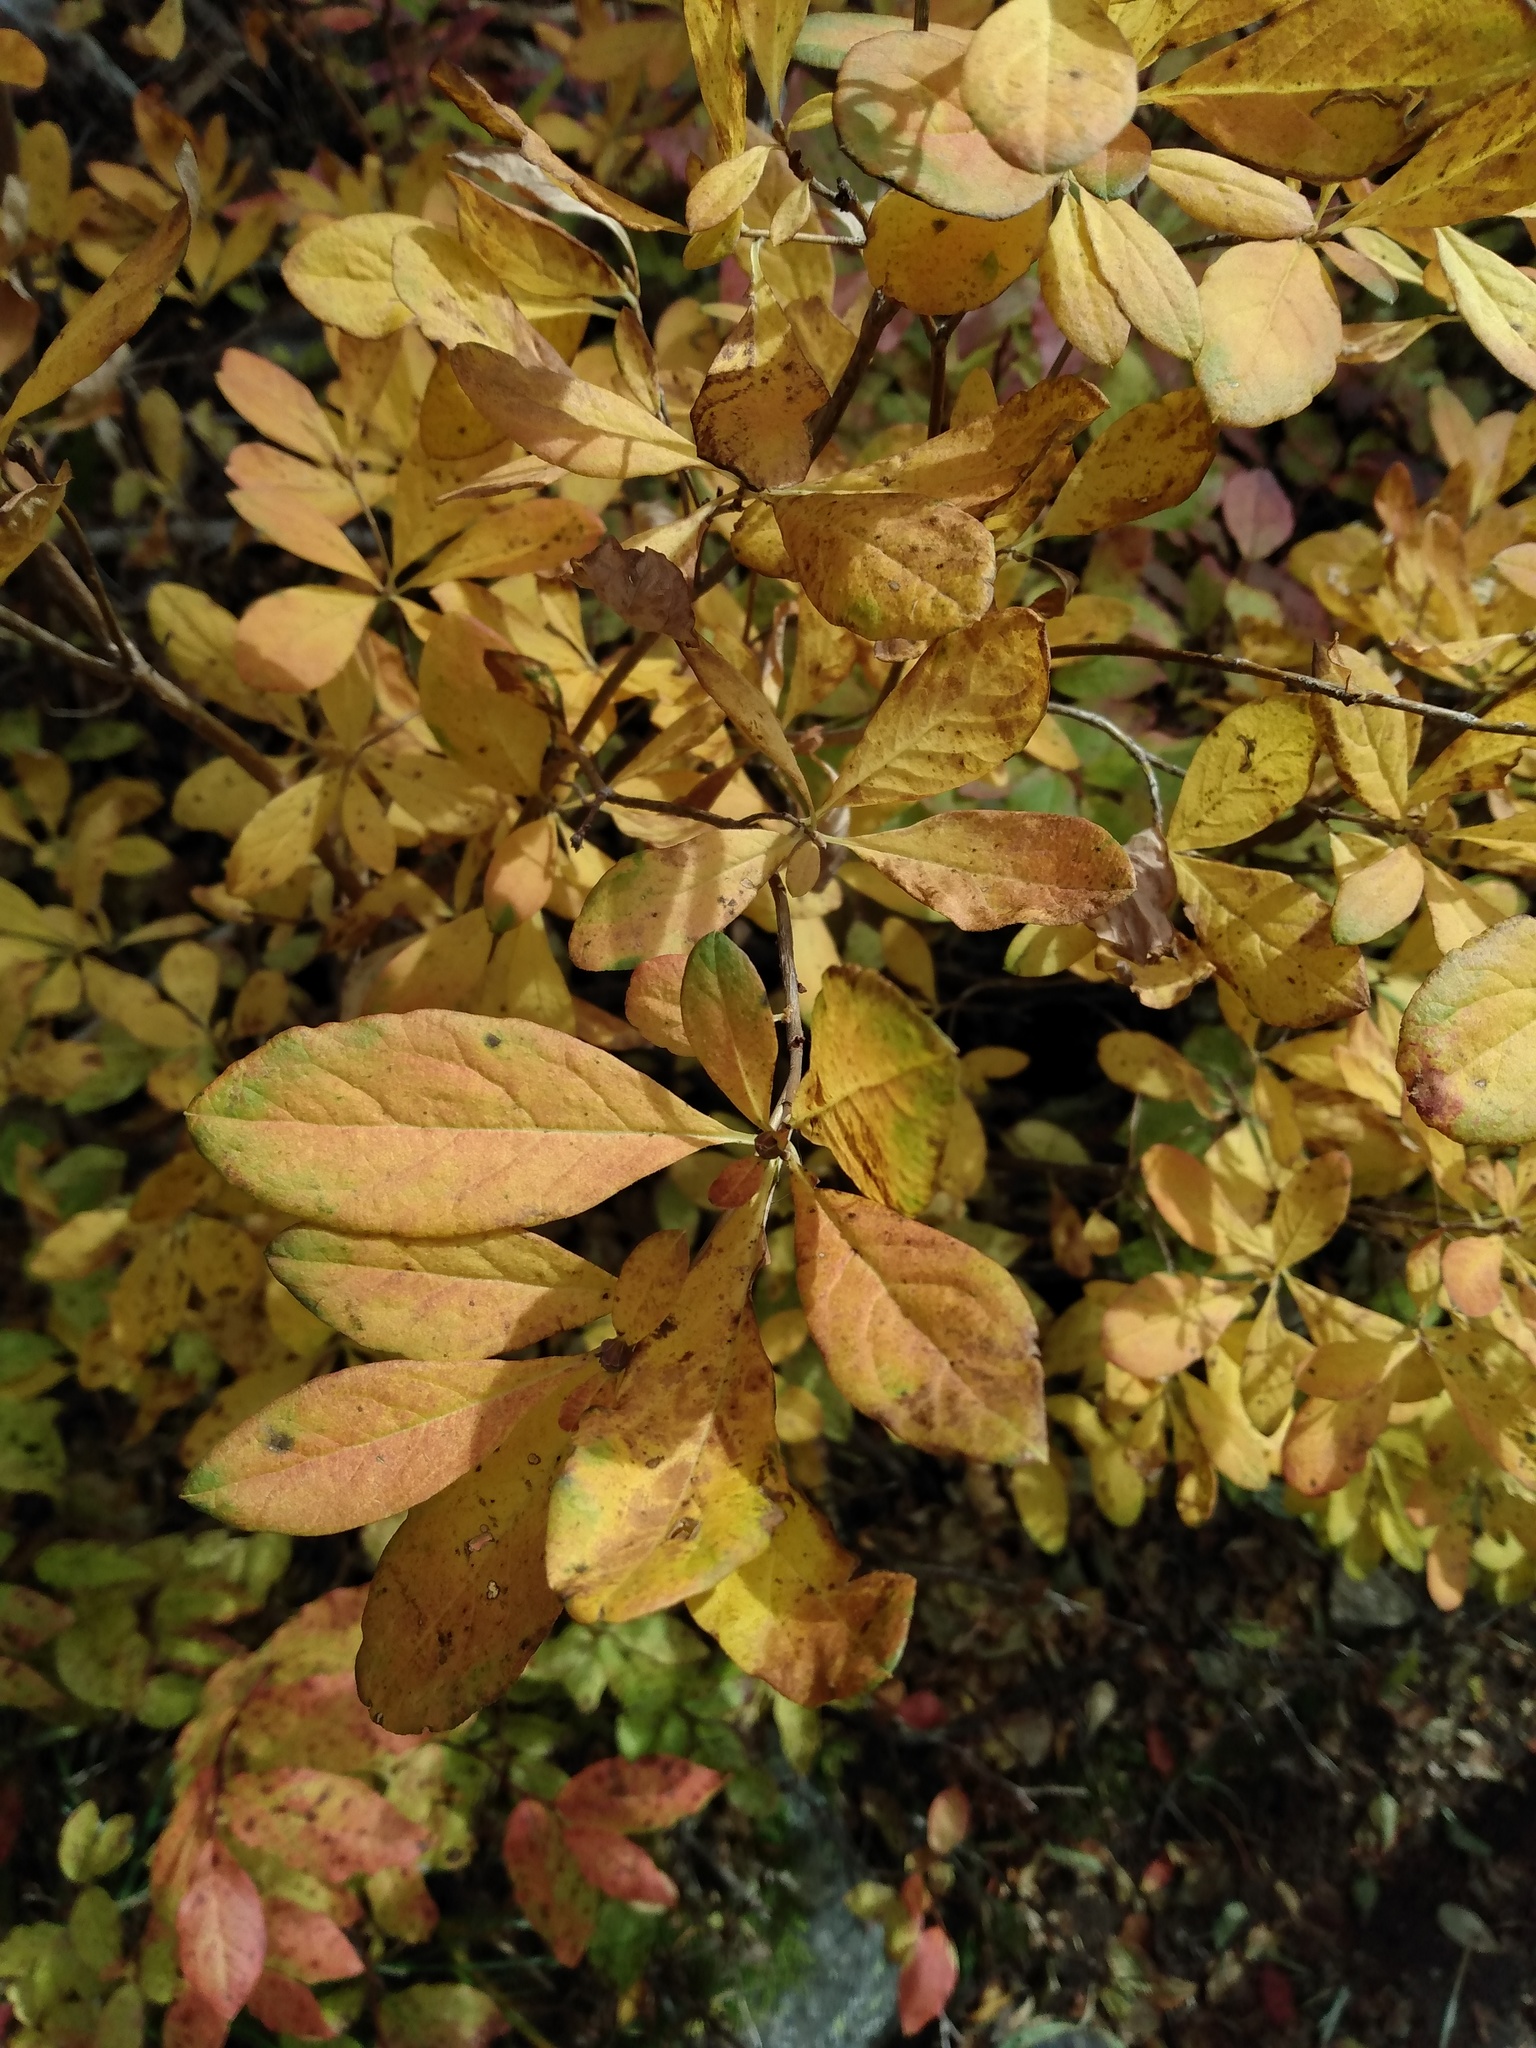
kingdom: Plantae
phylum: Tracheophyta
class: Magnoliopsida
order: Ericales
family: Ericaceae
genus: Rhododendron
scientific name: Rhododendron menziesii
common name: Pacific menziesia
